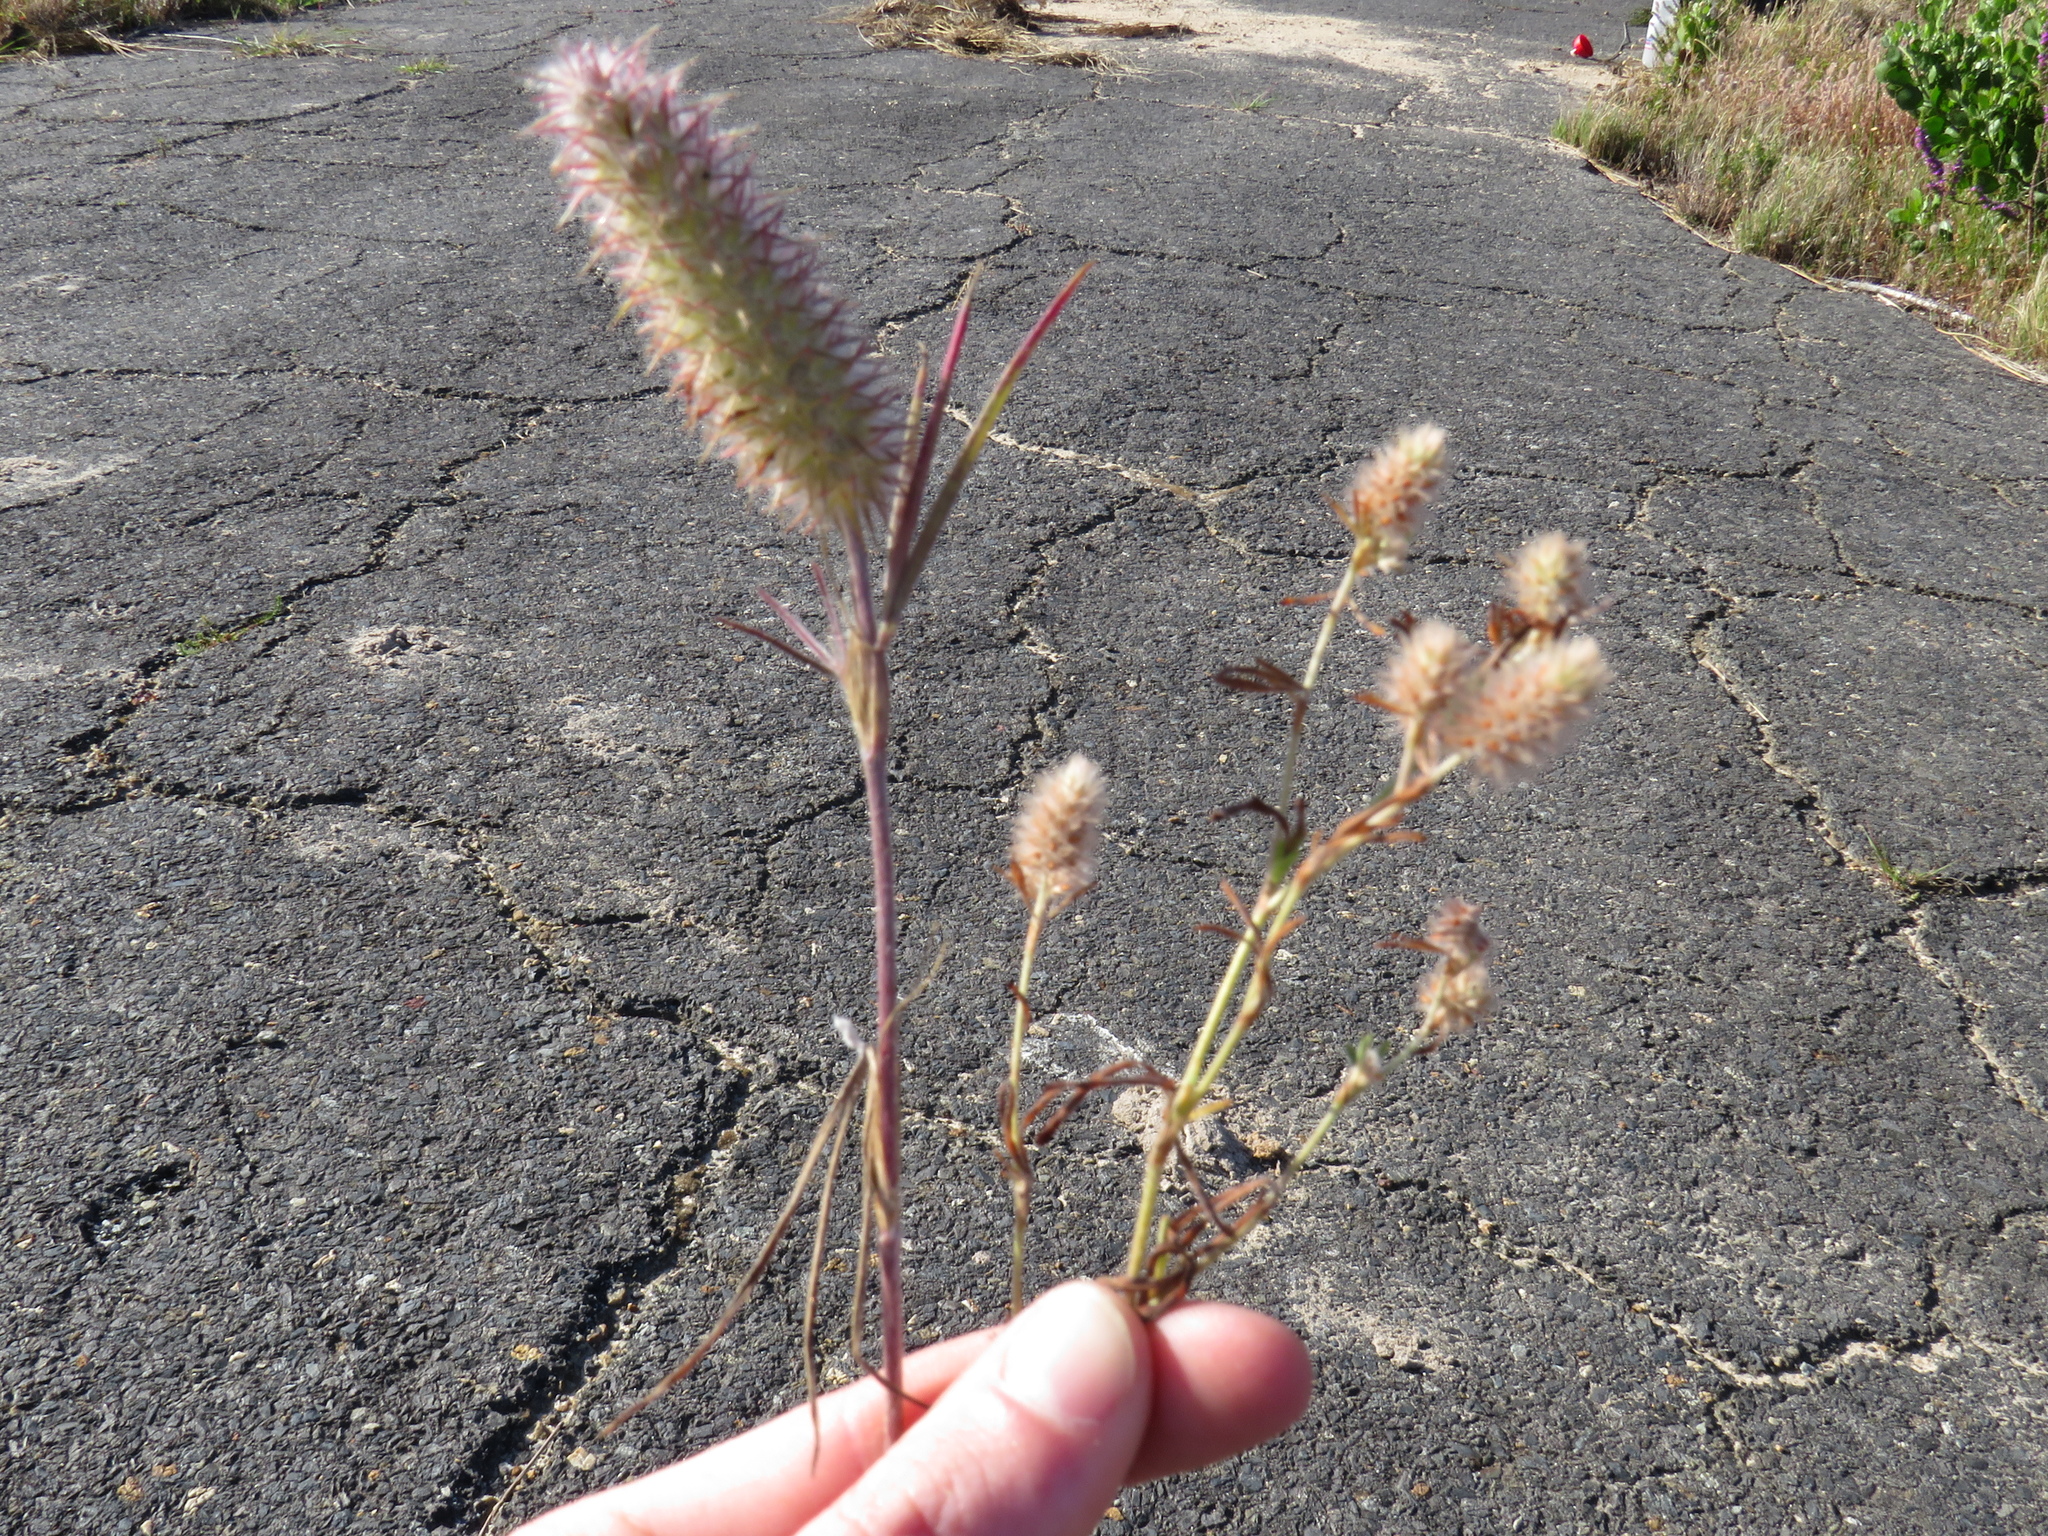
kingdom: Plantae
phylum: Tracheophyta
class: Magnoliopsida
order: Fabales
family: Fabaceae
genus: Trifolium
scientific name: Trifolium angustifolium
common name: Narrow clover
